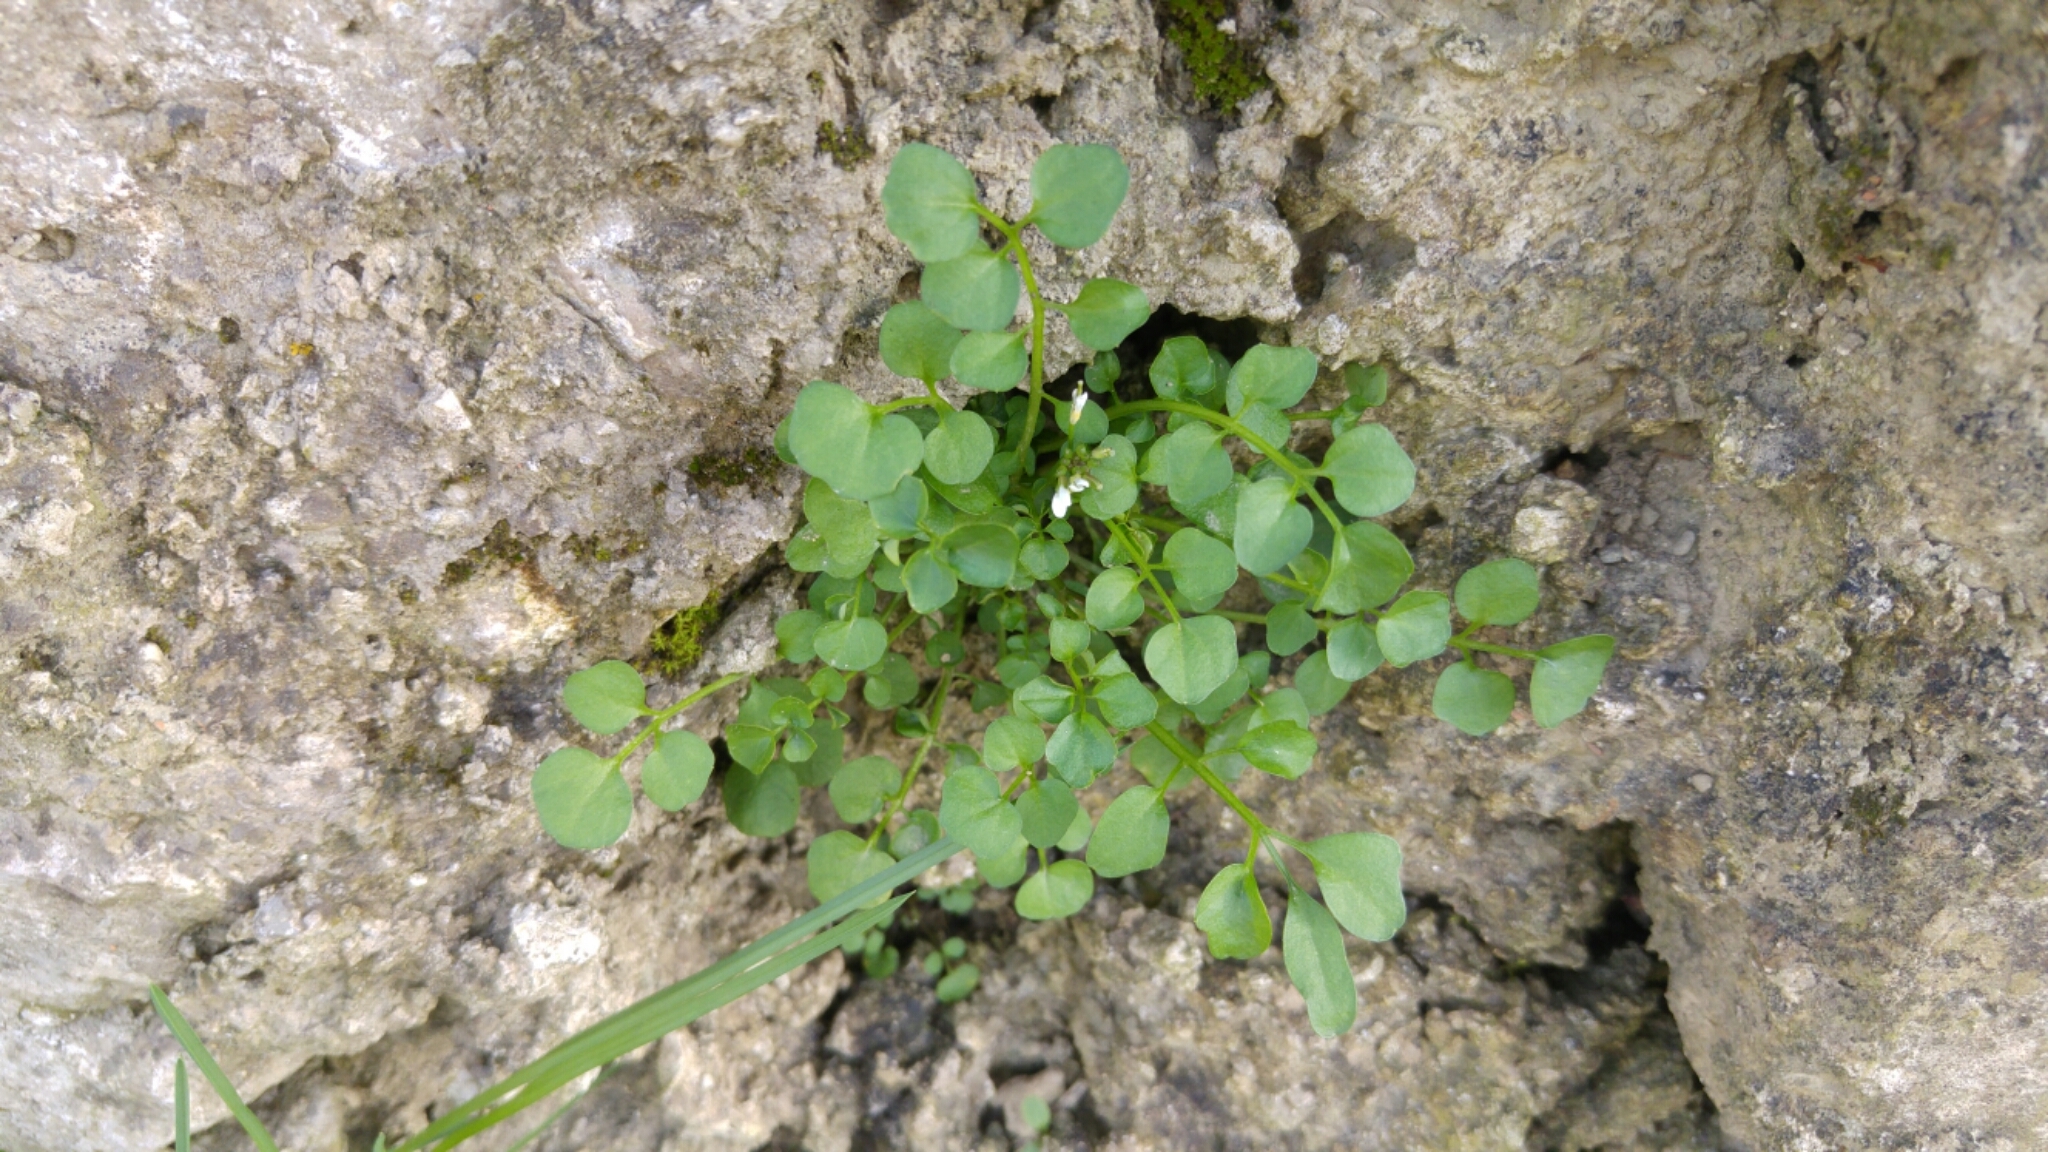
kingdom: Plantae
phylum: Tracheophyta
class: Magnoliopsida
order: Brassicales
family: Brassicaceae
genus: Cardamine
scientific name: Cardamine hirsuta
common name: Hairy bittercress
